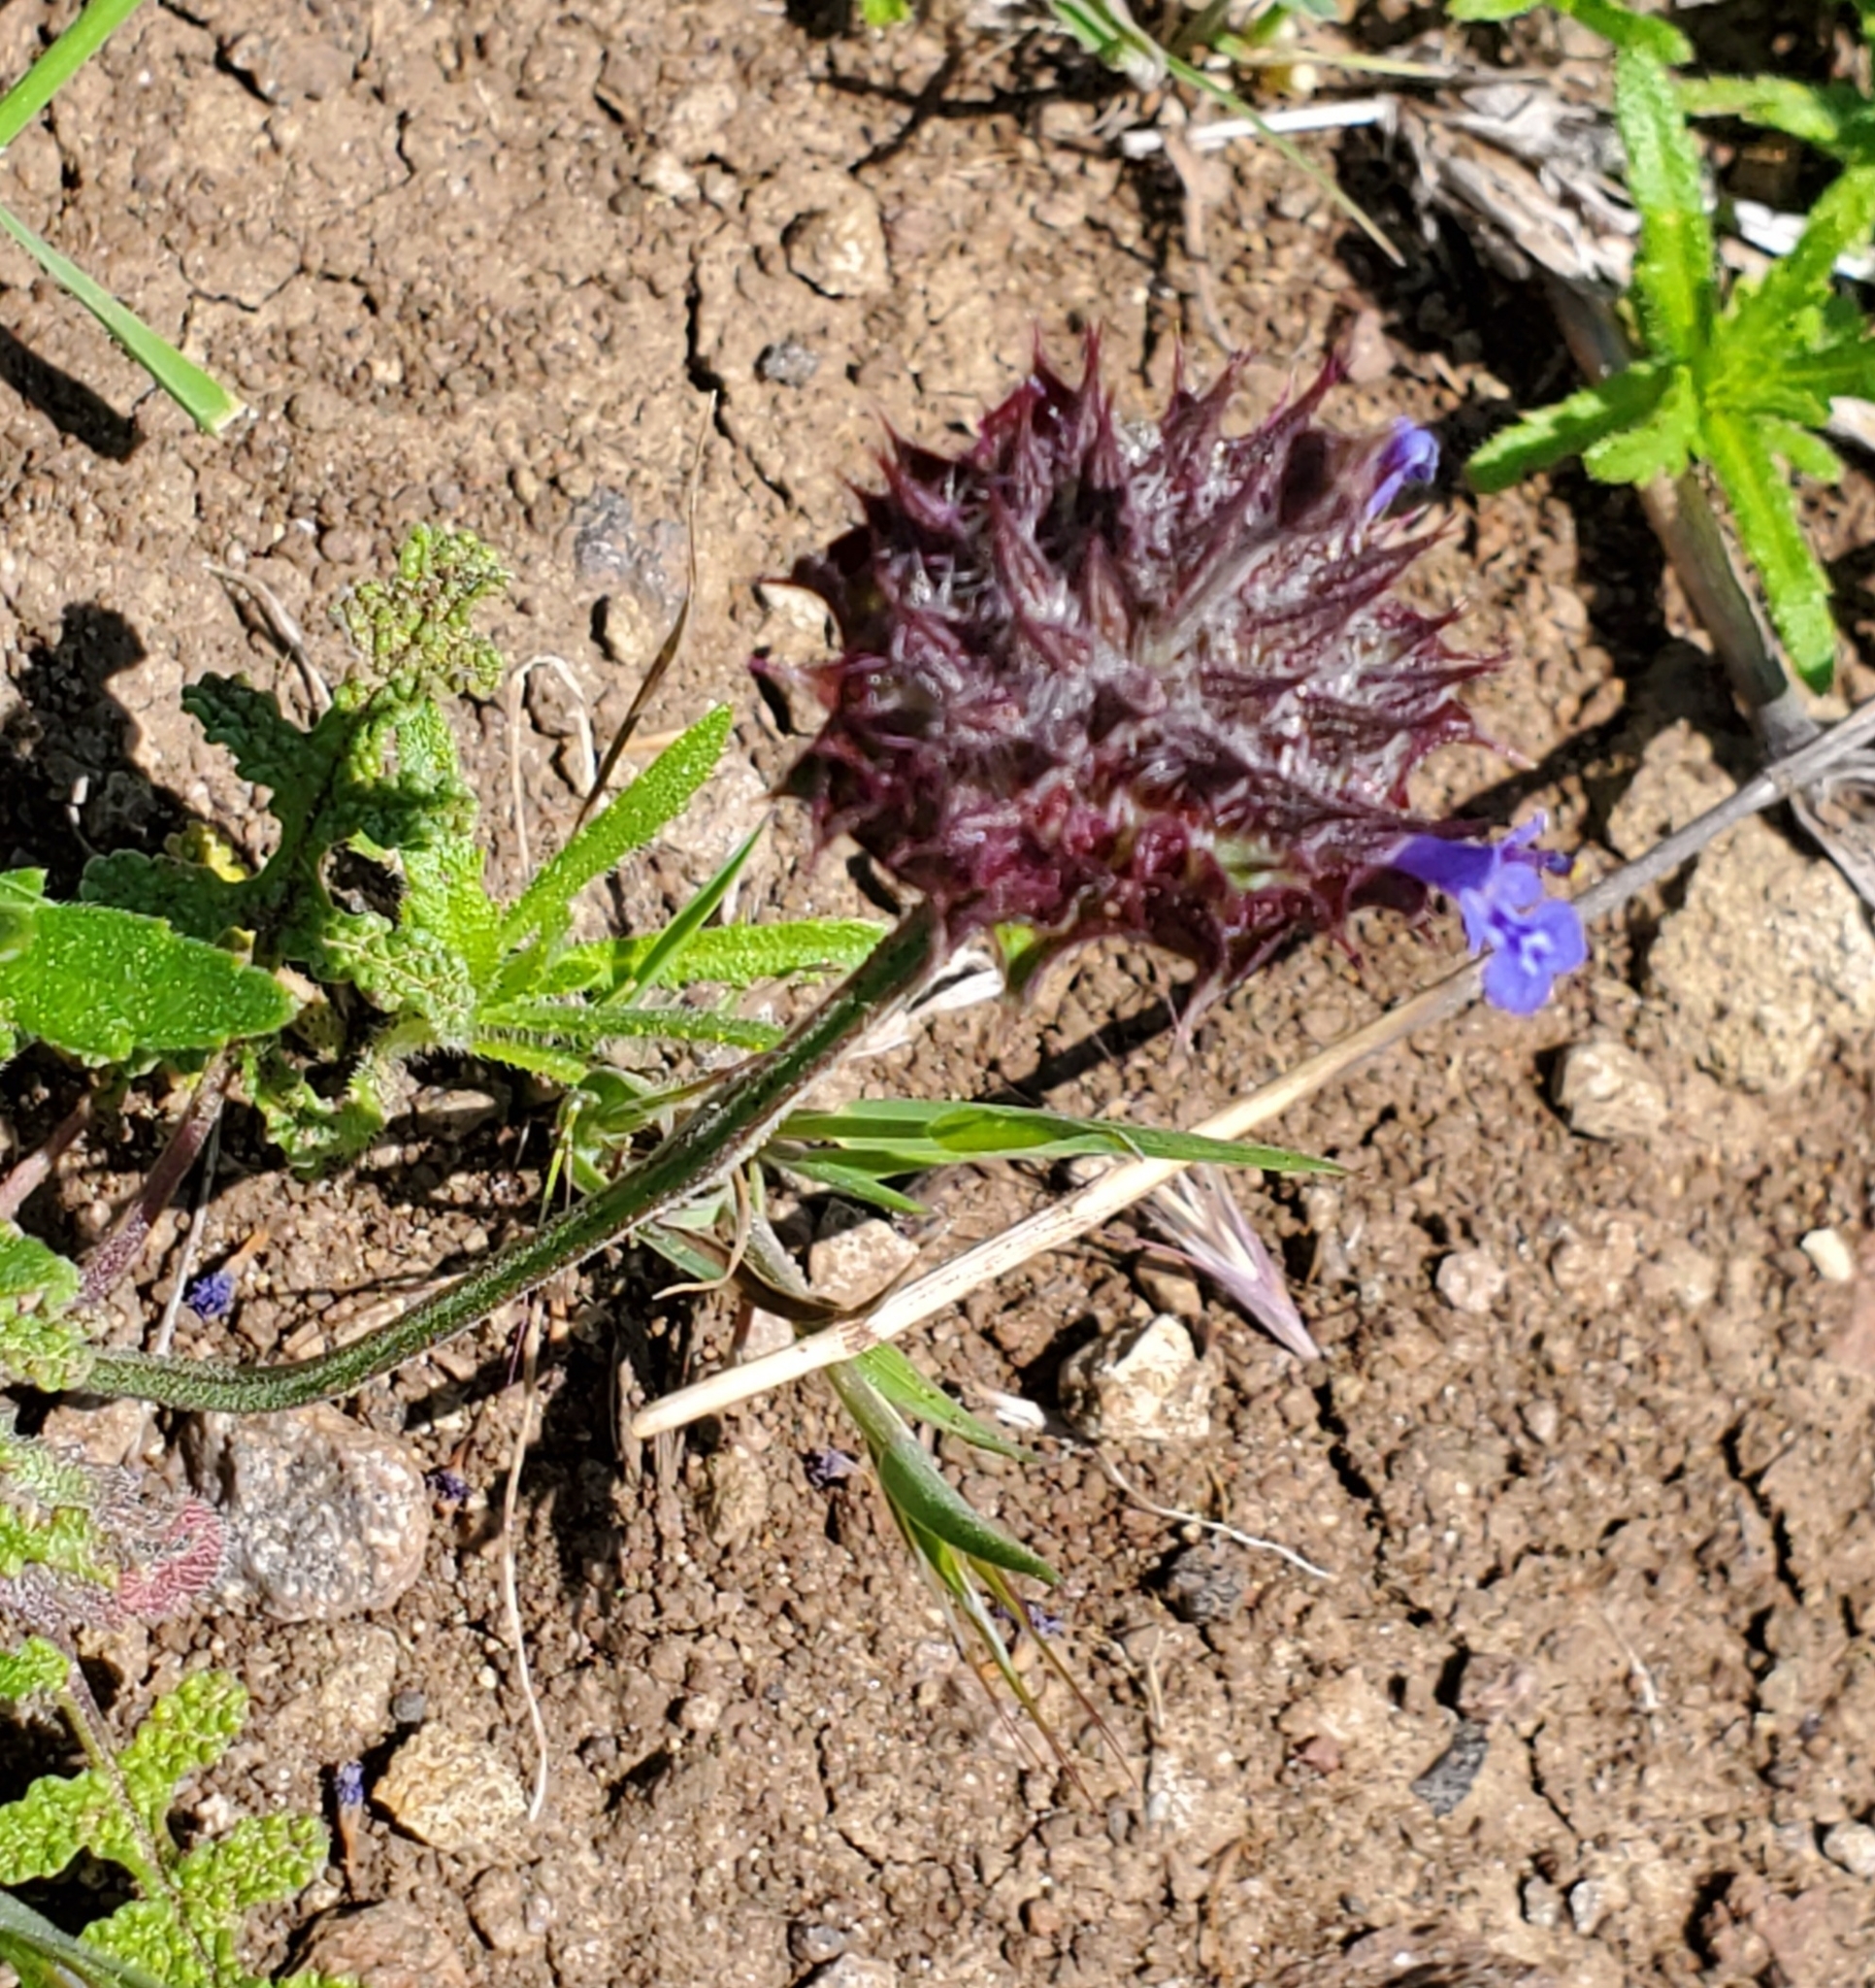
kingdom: Plantae
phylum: Tracheophyta
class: Magnoliopsida
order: Lamiales
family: Lamiaceae
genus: Salvia
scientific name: Salvia columbariae
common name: Chia
